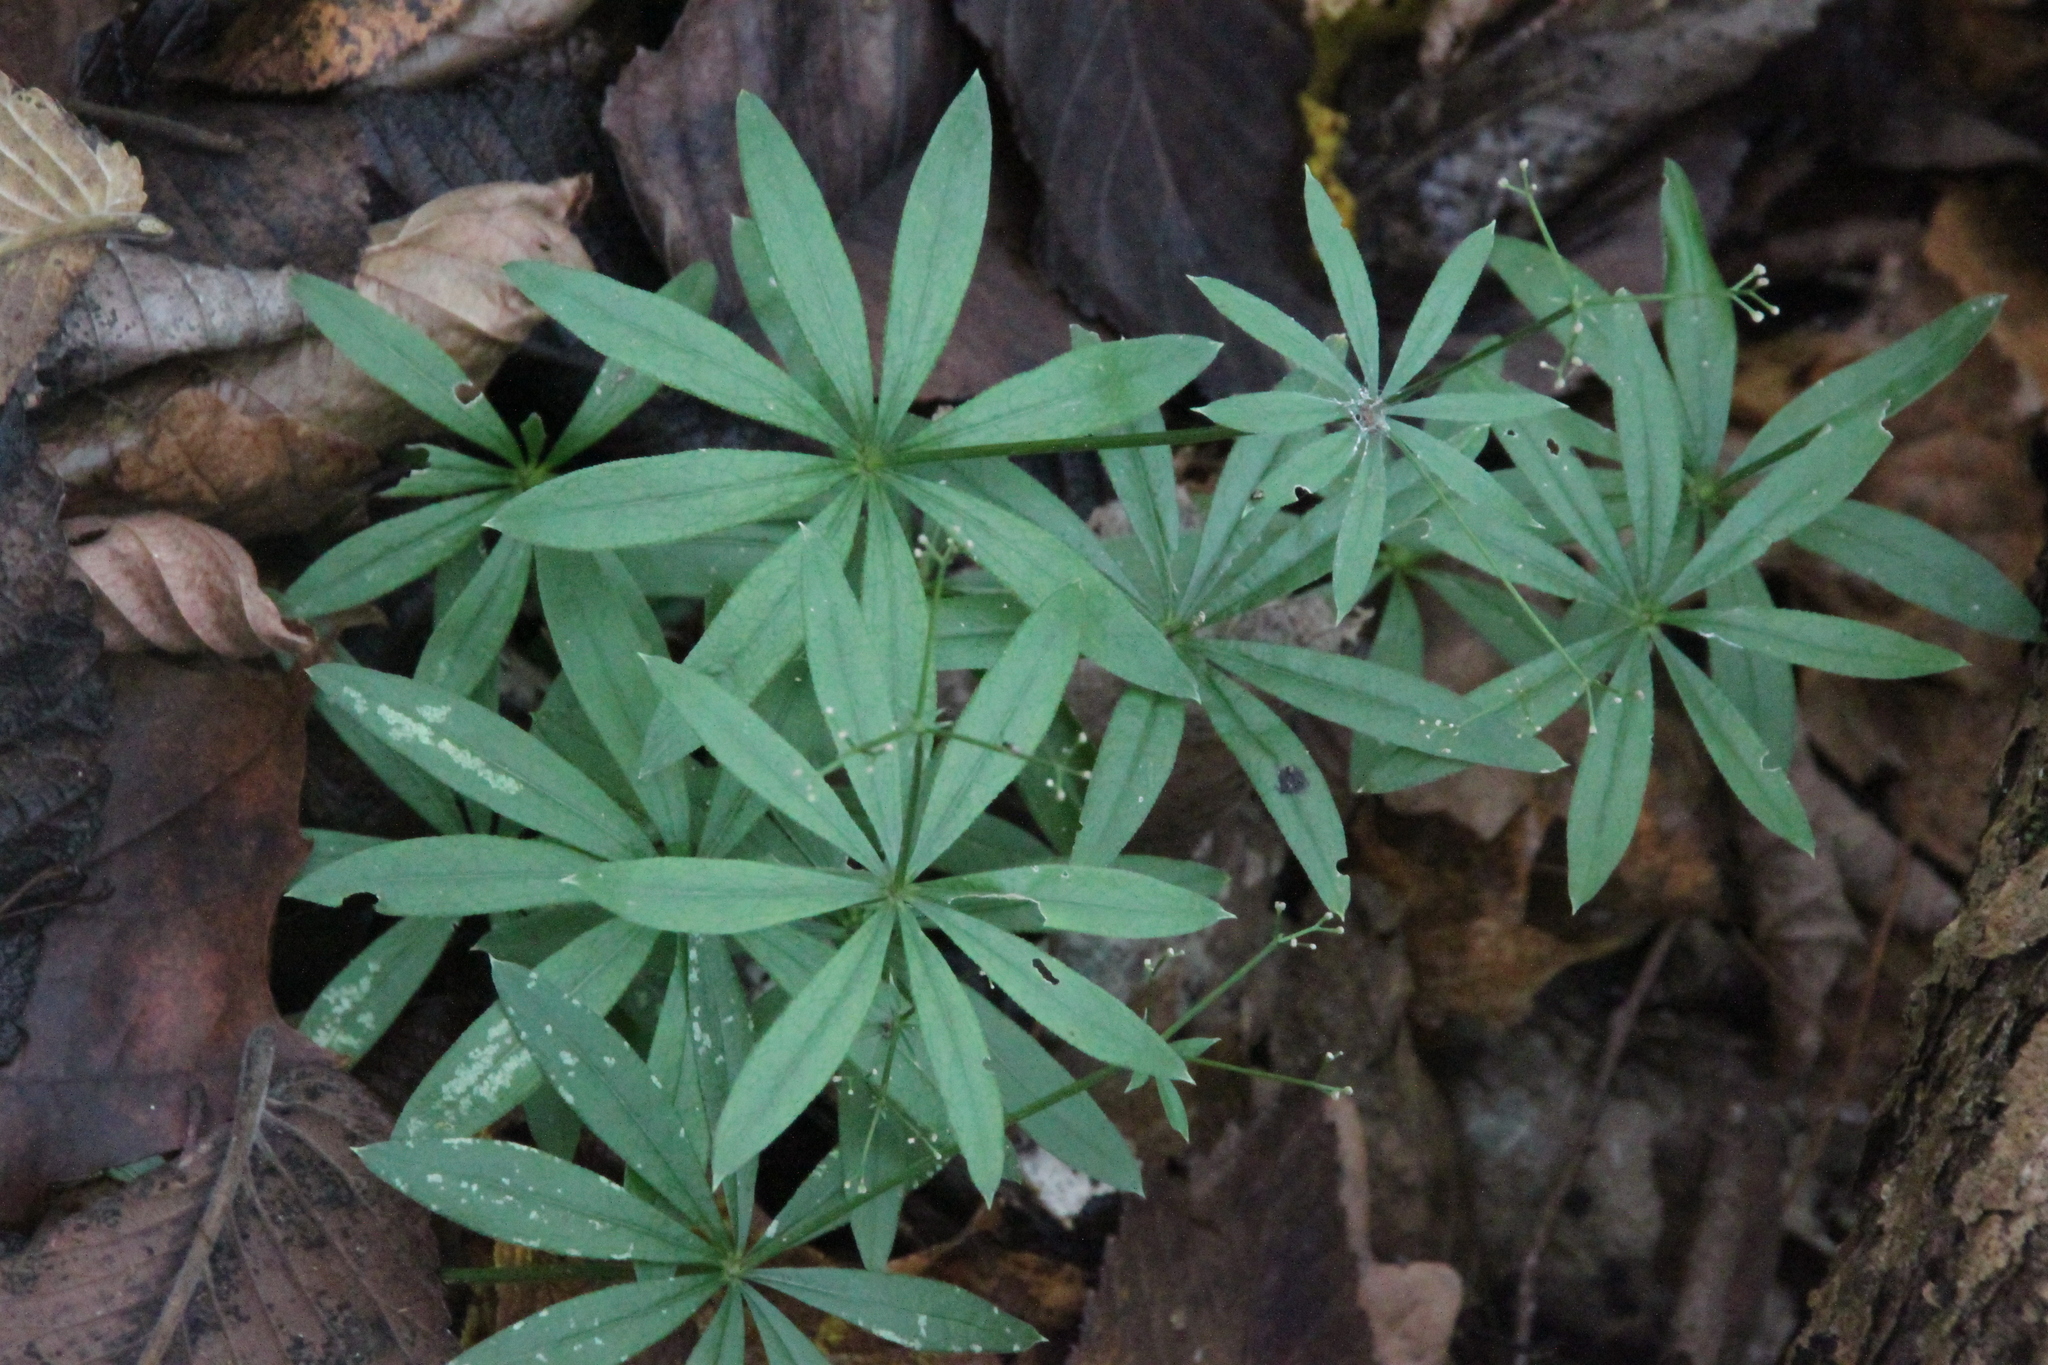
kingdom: Plantae
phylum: Tracheophyta
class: Magnoliopsida
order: Gentianales
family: Rubiaceae
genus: Galium
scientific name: Galium odoratum
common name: Sweet woodruff
